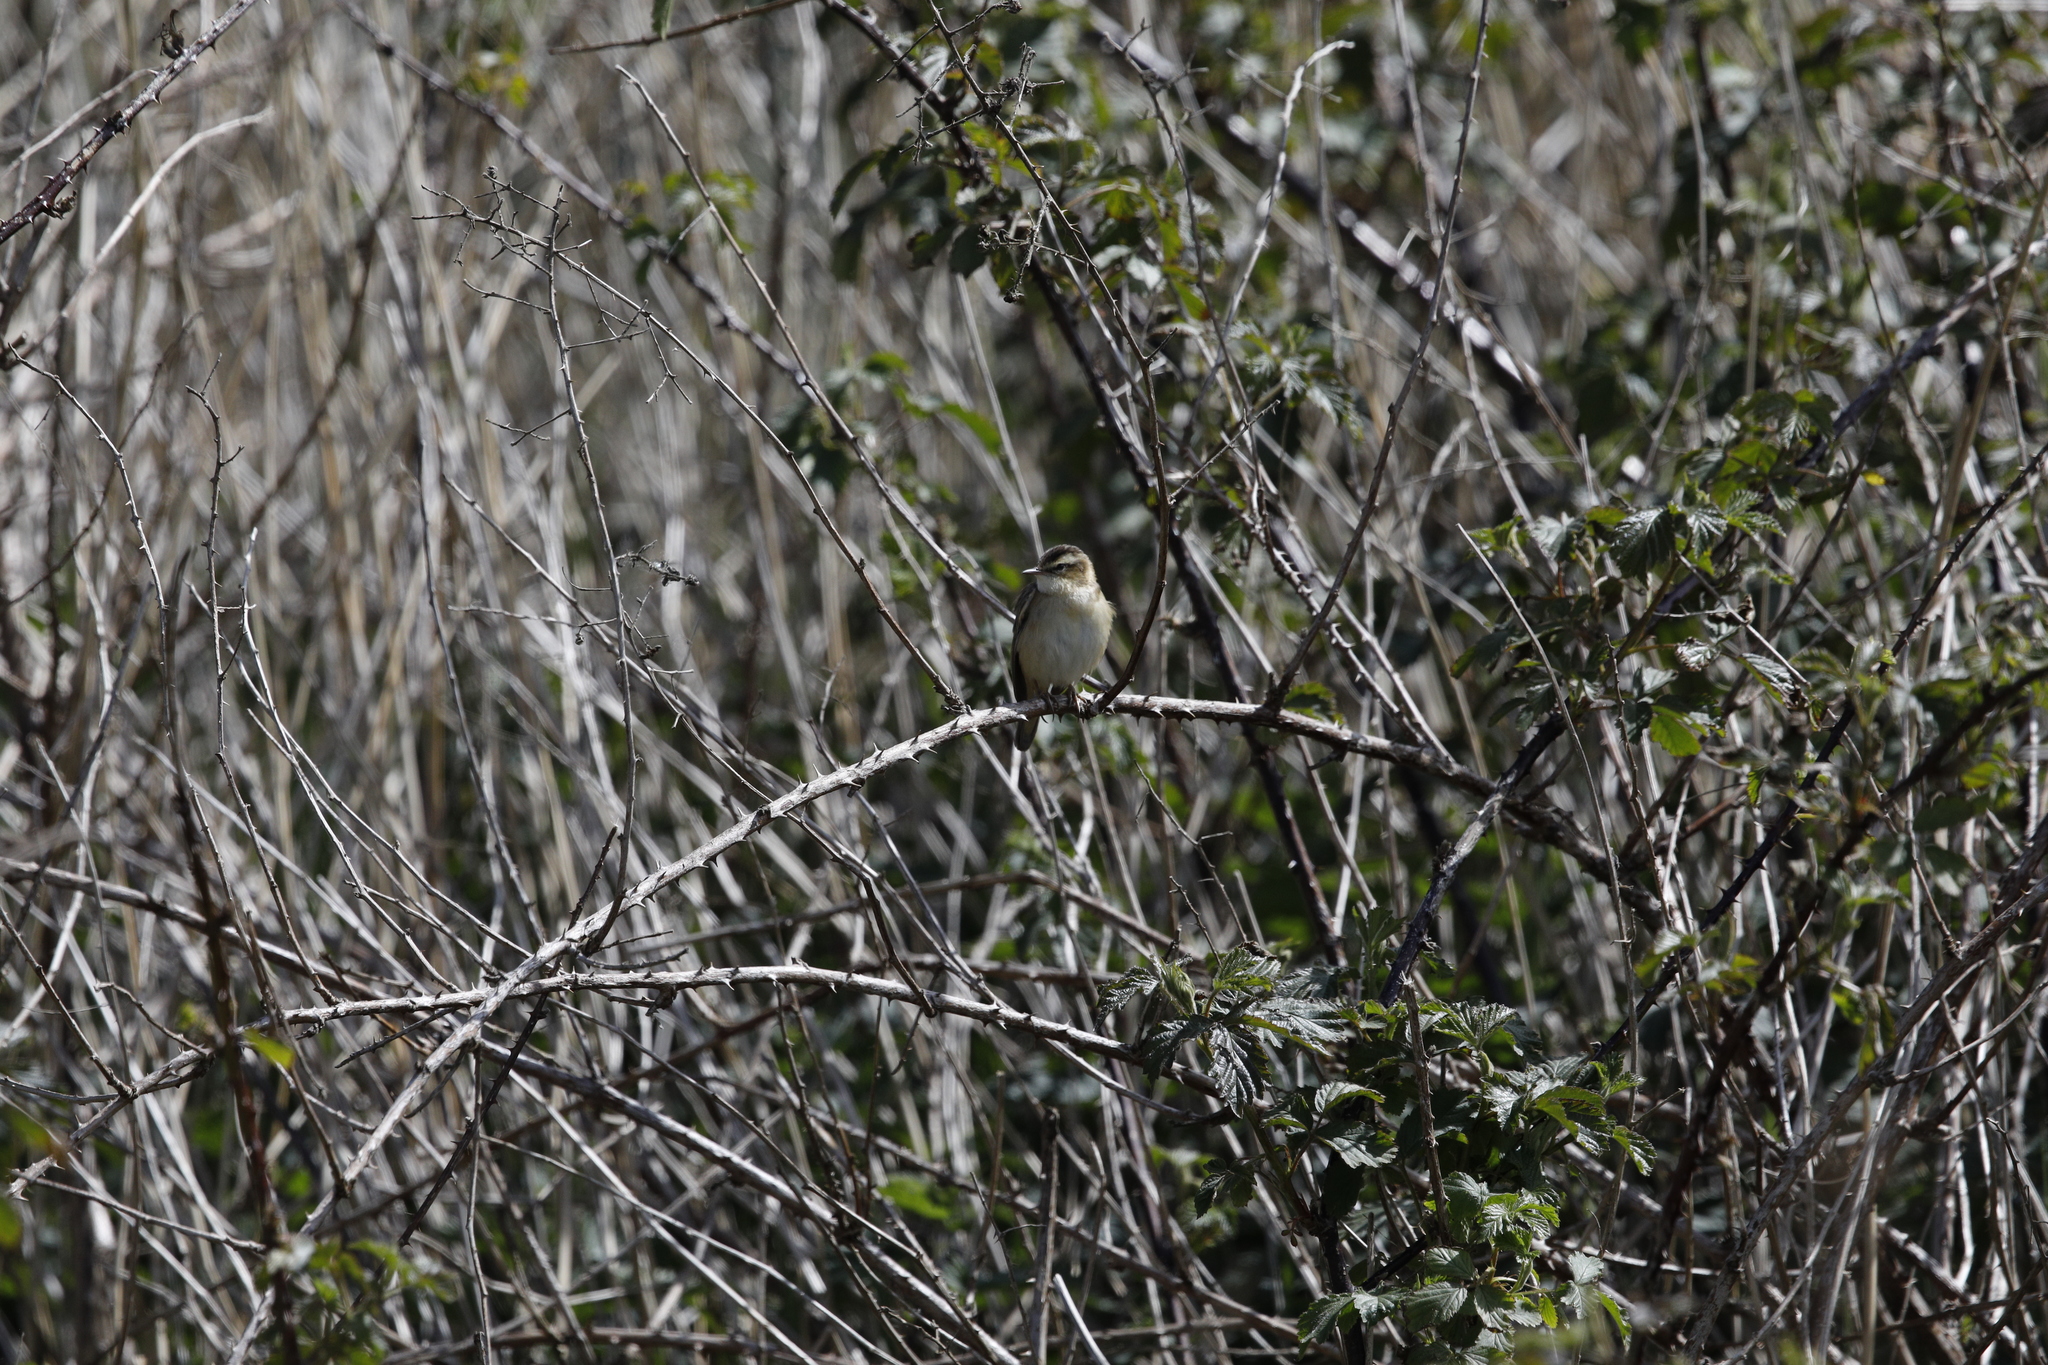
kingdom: Animalia
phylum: Chordata
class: Aves
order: Passeriformes
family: Acrocephalidae
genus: Acrocephalus
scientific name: Acrocephalus schoenobaenus
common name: Sedge warbler
